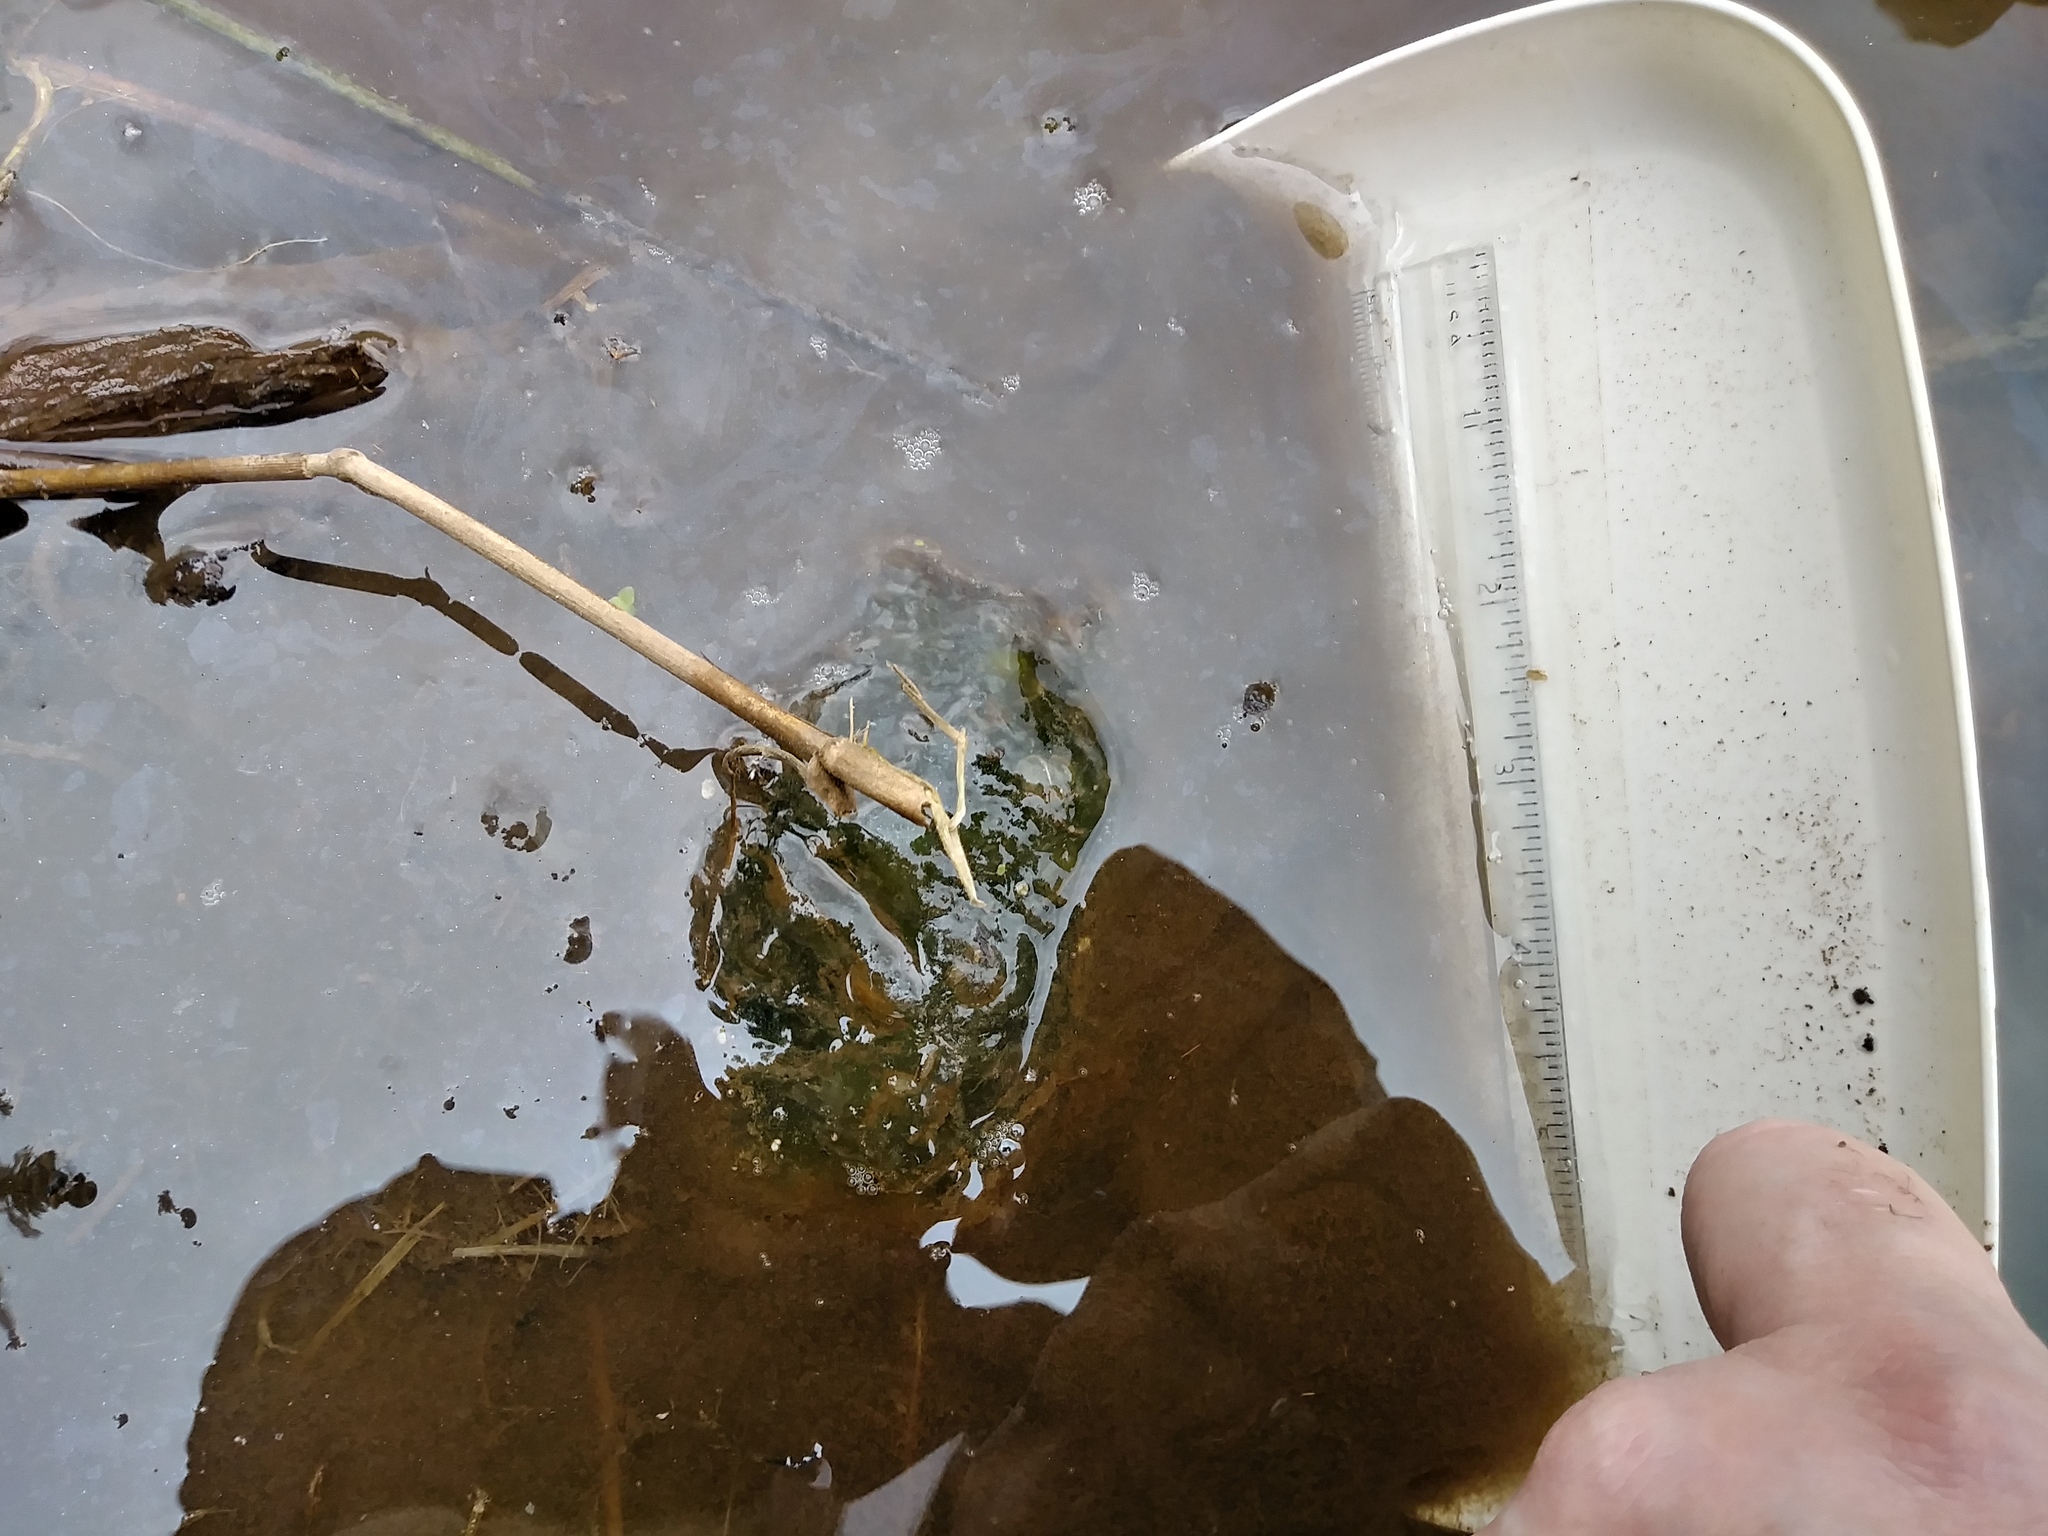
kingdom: Animalia
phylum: Chordata
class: Amphibia
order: Caudata
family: Ambystomatidae
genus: Ambystoma
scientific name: Ambystoma gracile
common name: Northwestern salamander
